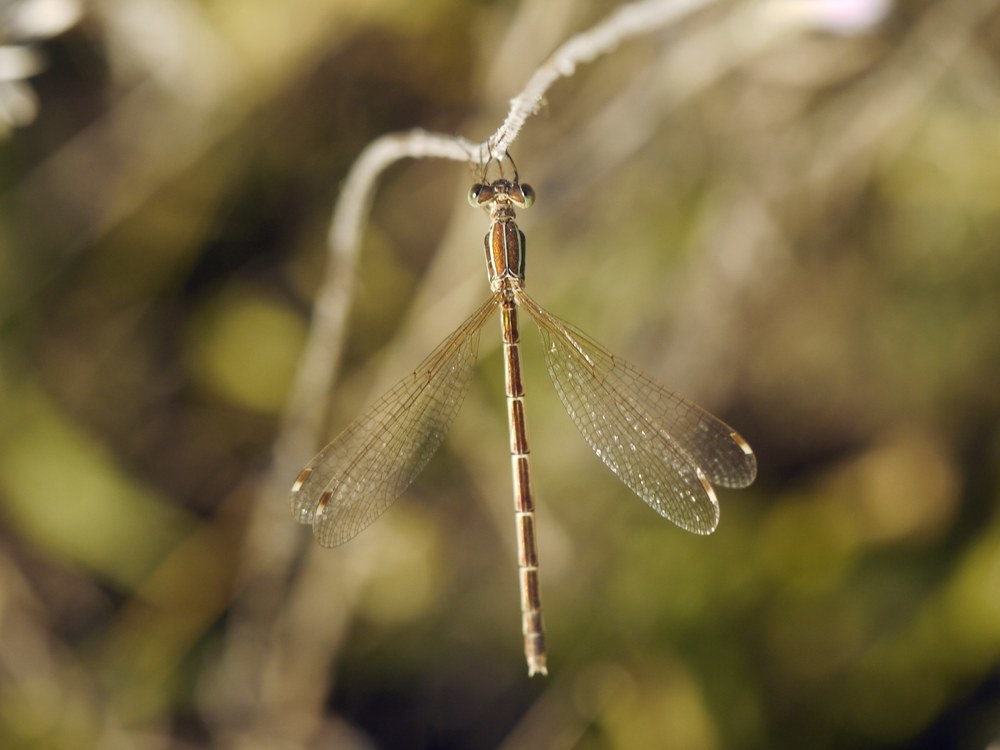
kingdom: Animalia
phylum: Arthropoda
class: Insecta
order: Odonata
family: Lestidae
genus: Lestes
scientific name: Lestes barbarus
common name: Migrant spreadwing
